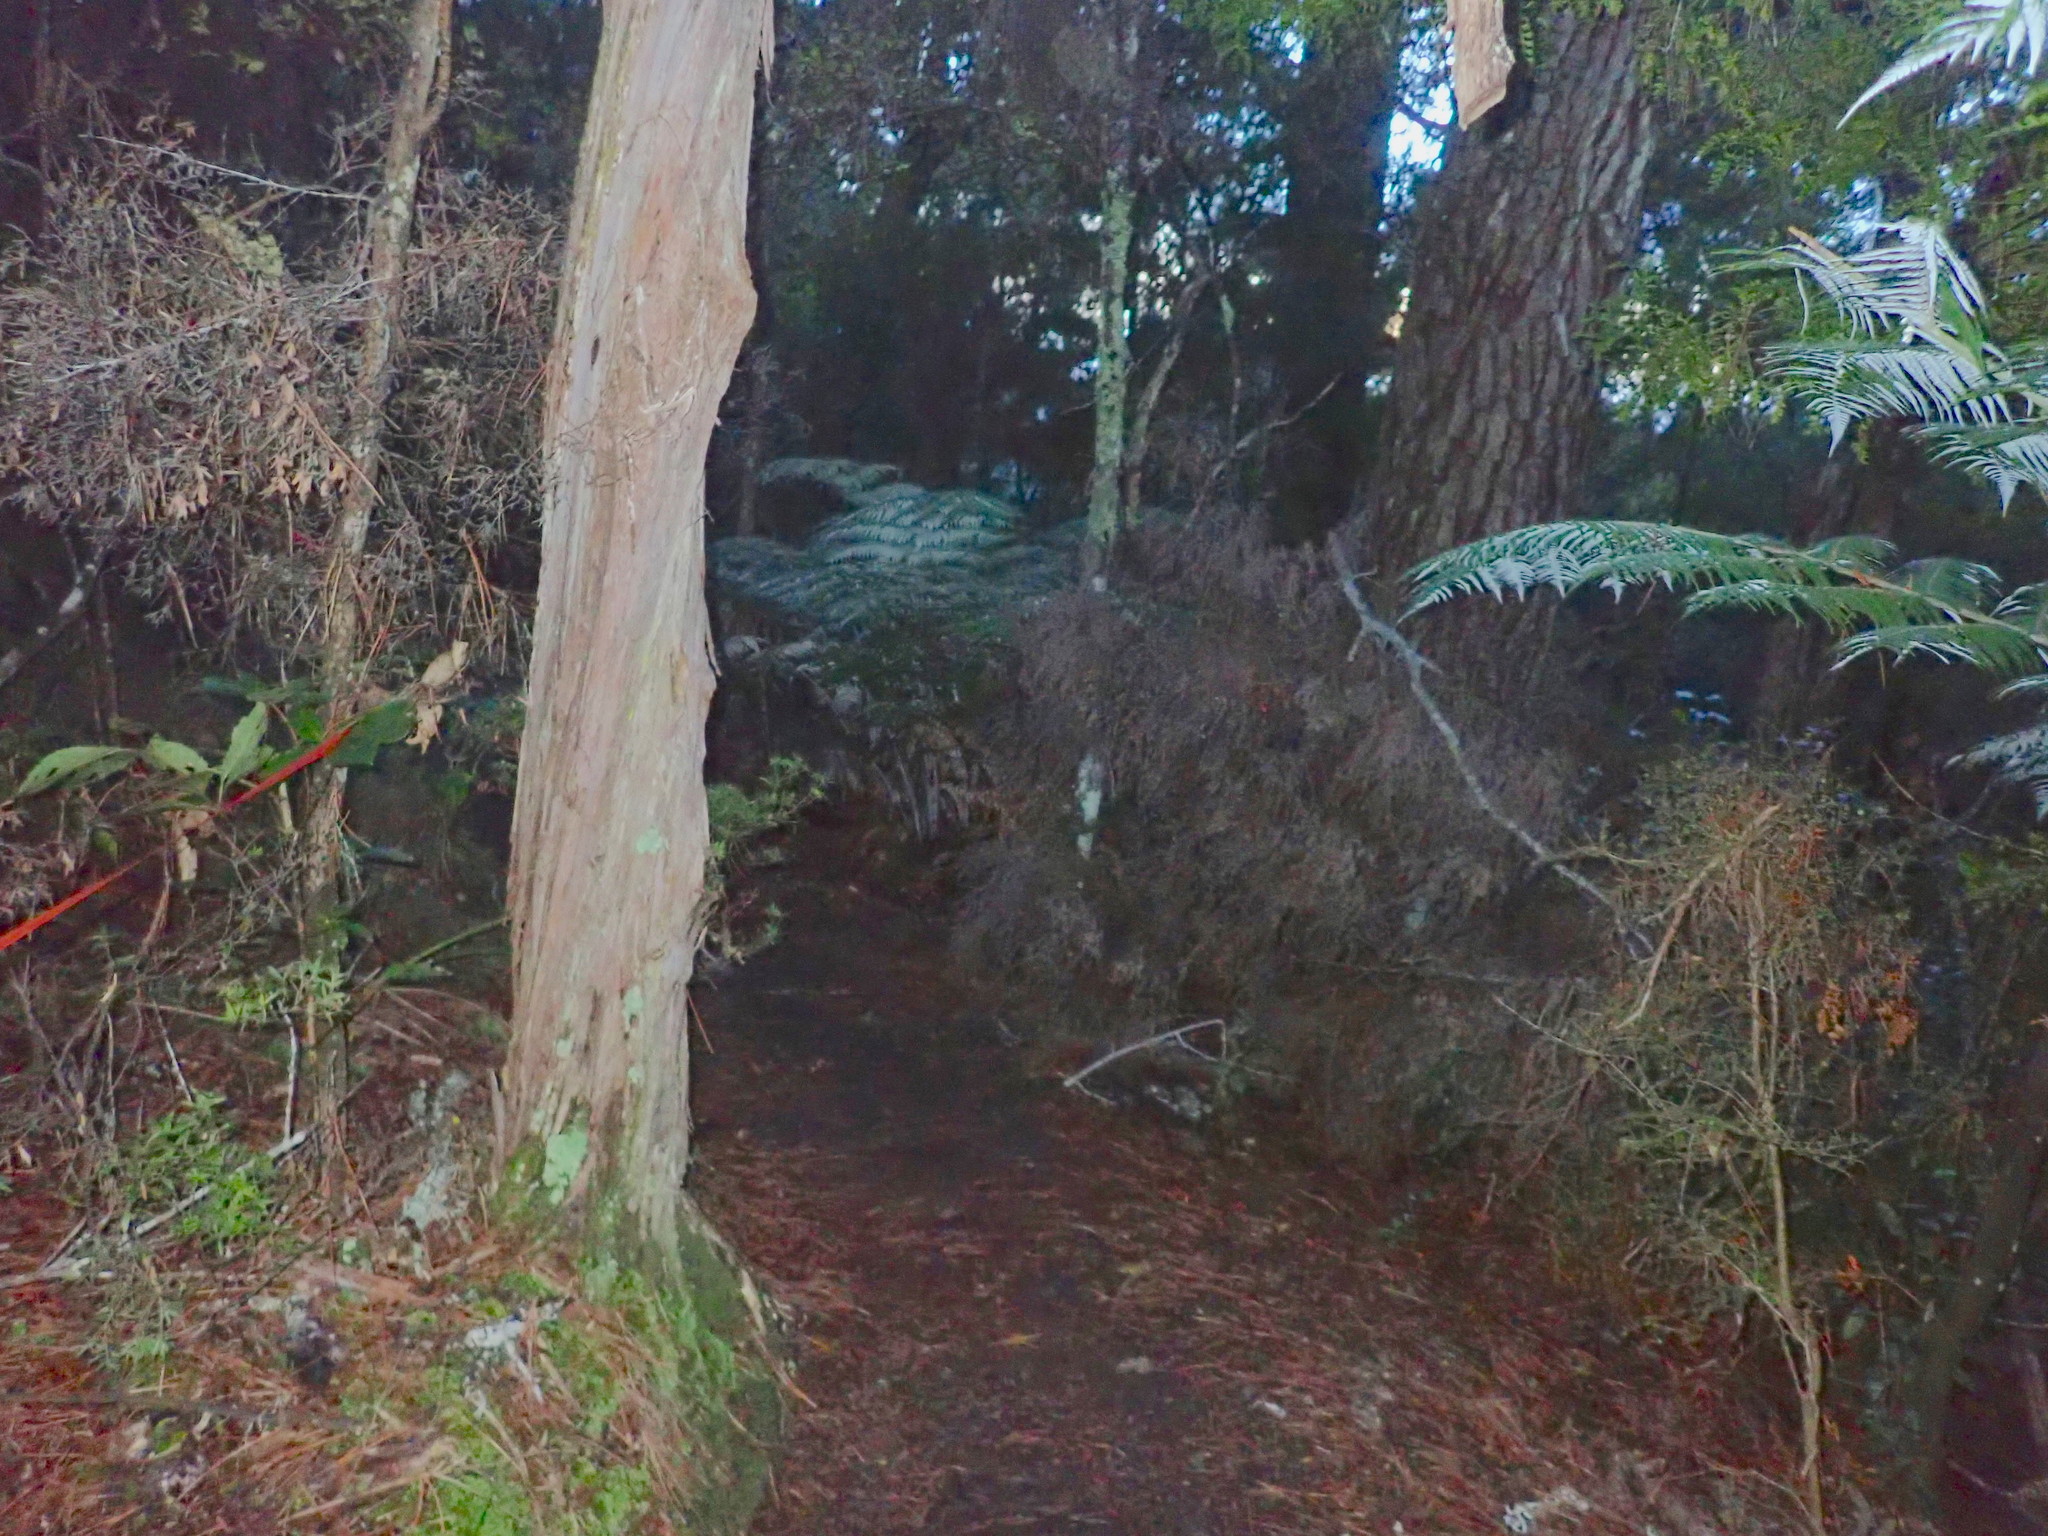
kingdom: Plantae
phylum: Tracheophyta
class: Pinopsida
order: Pinales
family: Phyllocladaceae
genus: Phyllocladus
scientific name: Phyllocladus trichomanoides
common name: Celery pine
